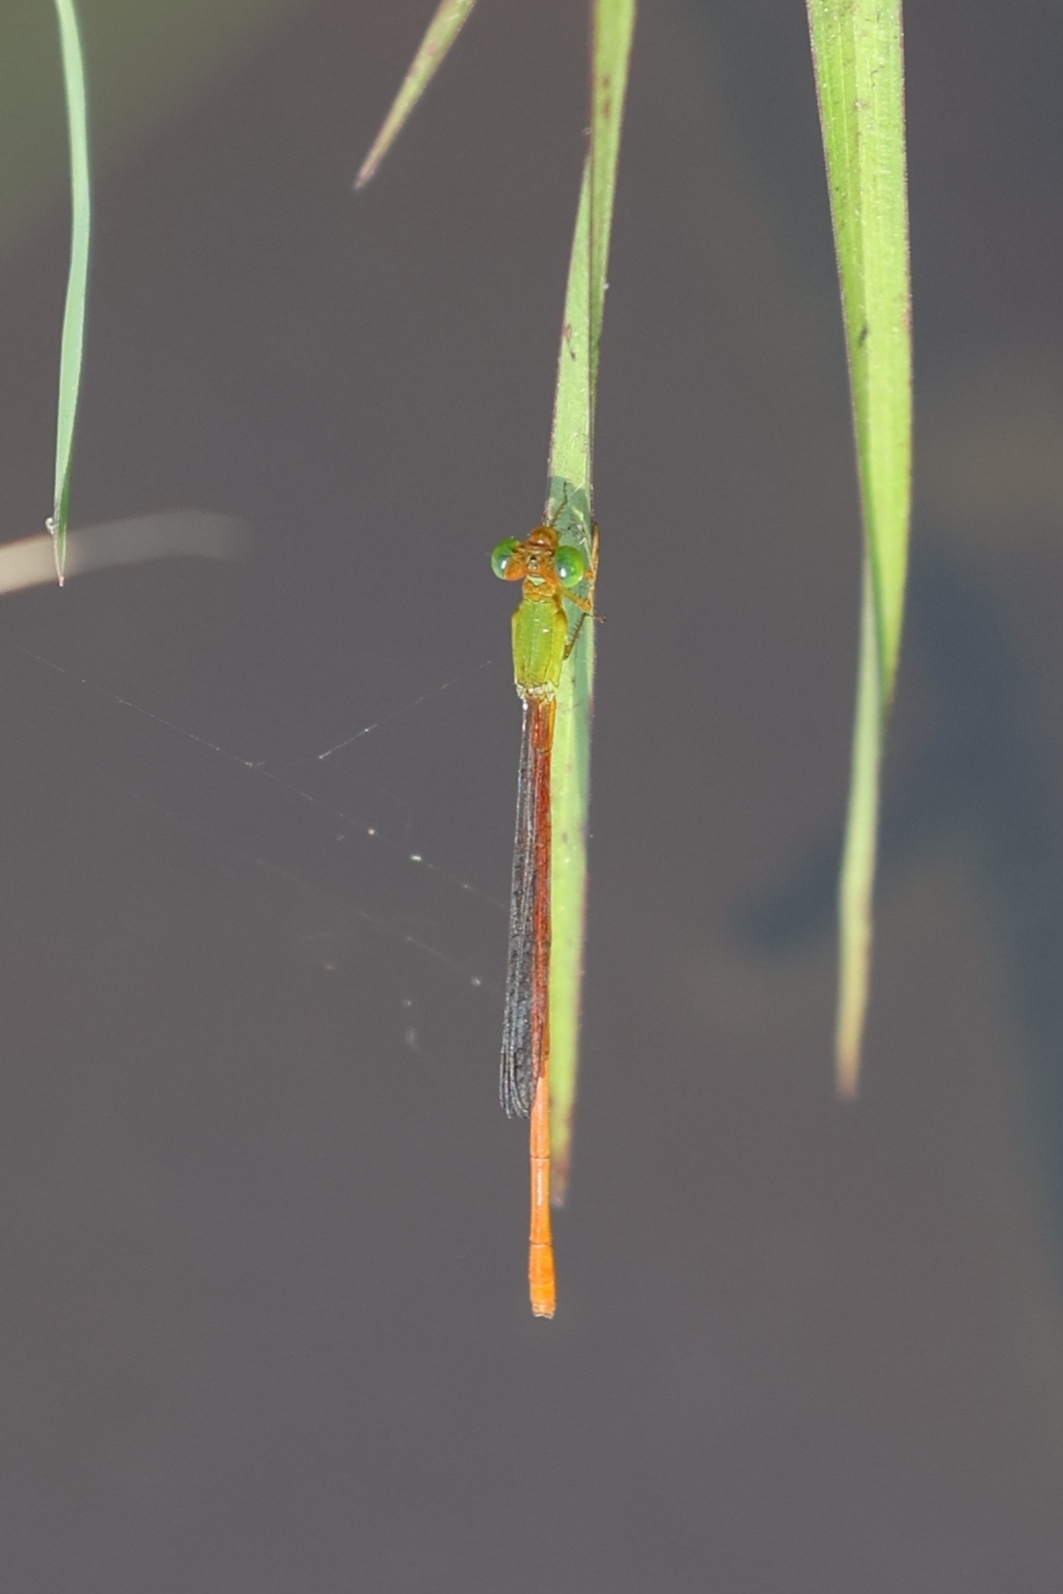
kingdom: Animalia
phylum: Arthropoda
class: Insecta
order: Odonata
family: Coenagrionidae
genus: Ceriagrion
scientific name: Ceriagrion auranticum
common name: Orange-tailed sprite
